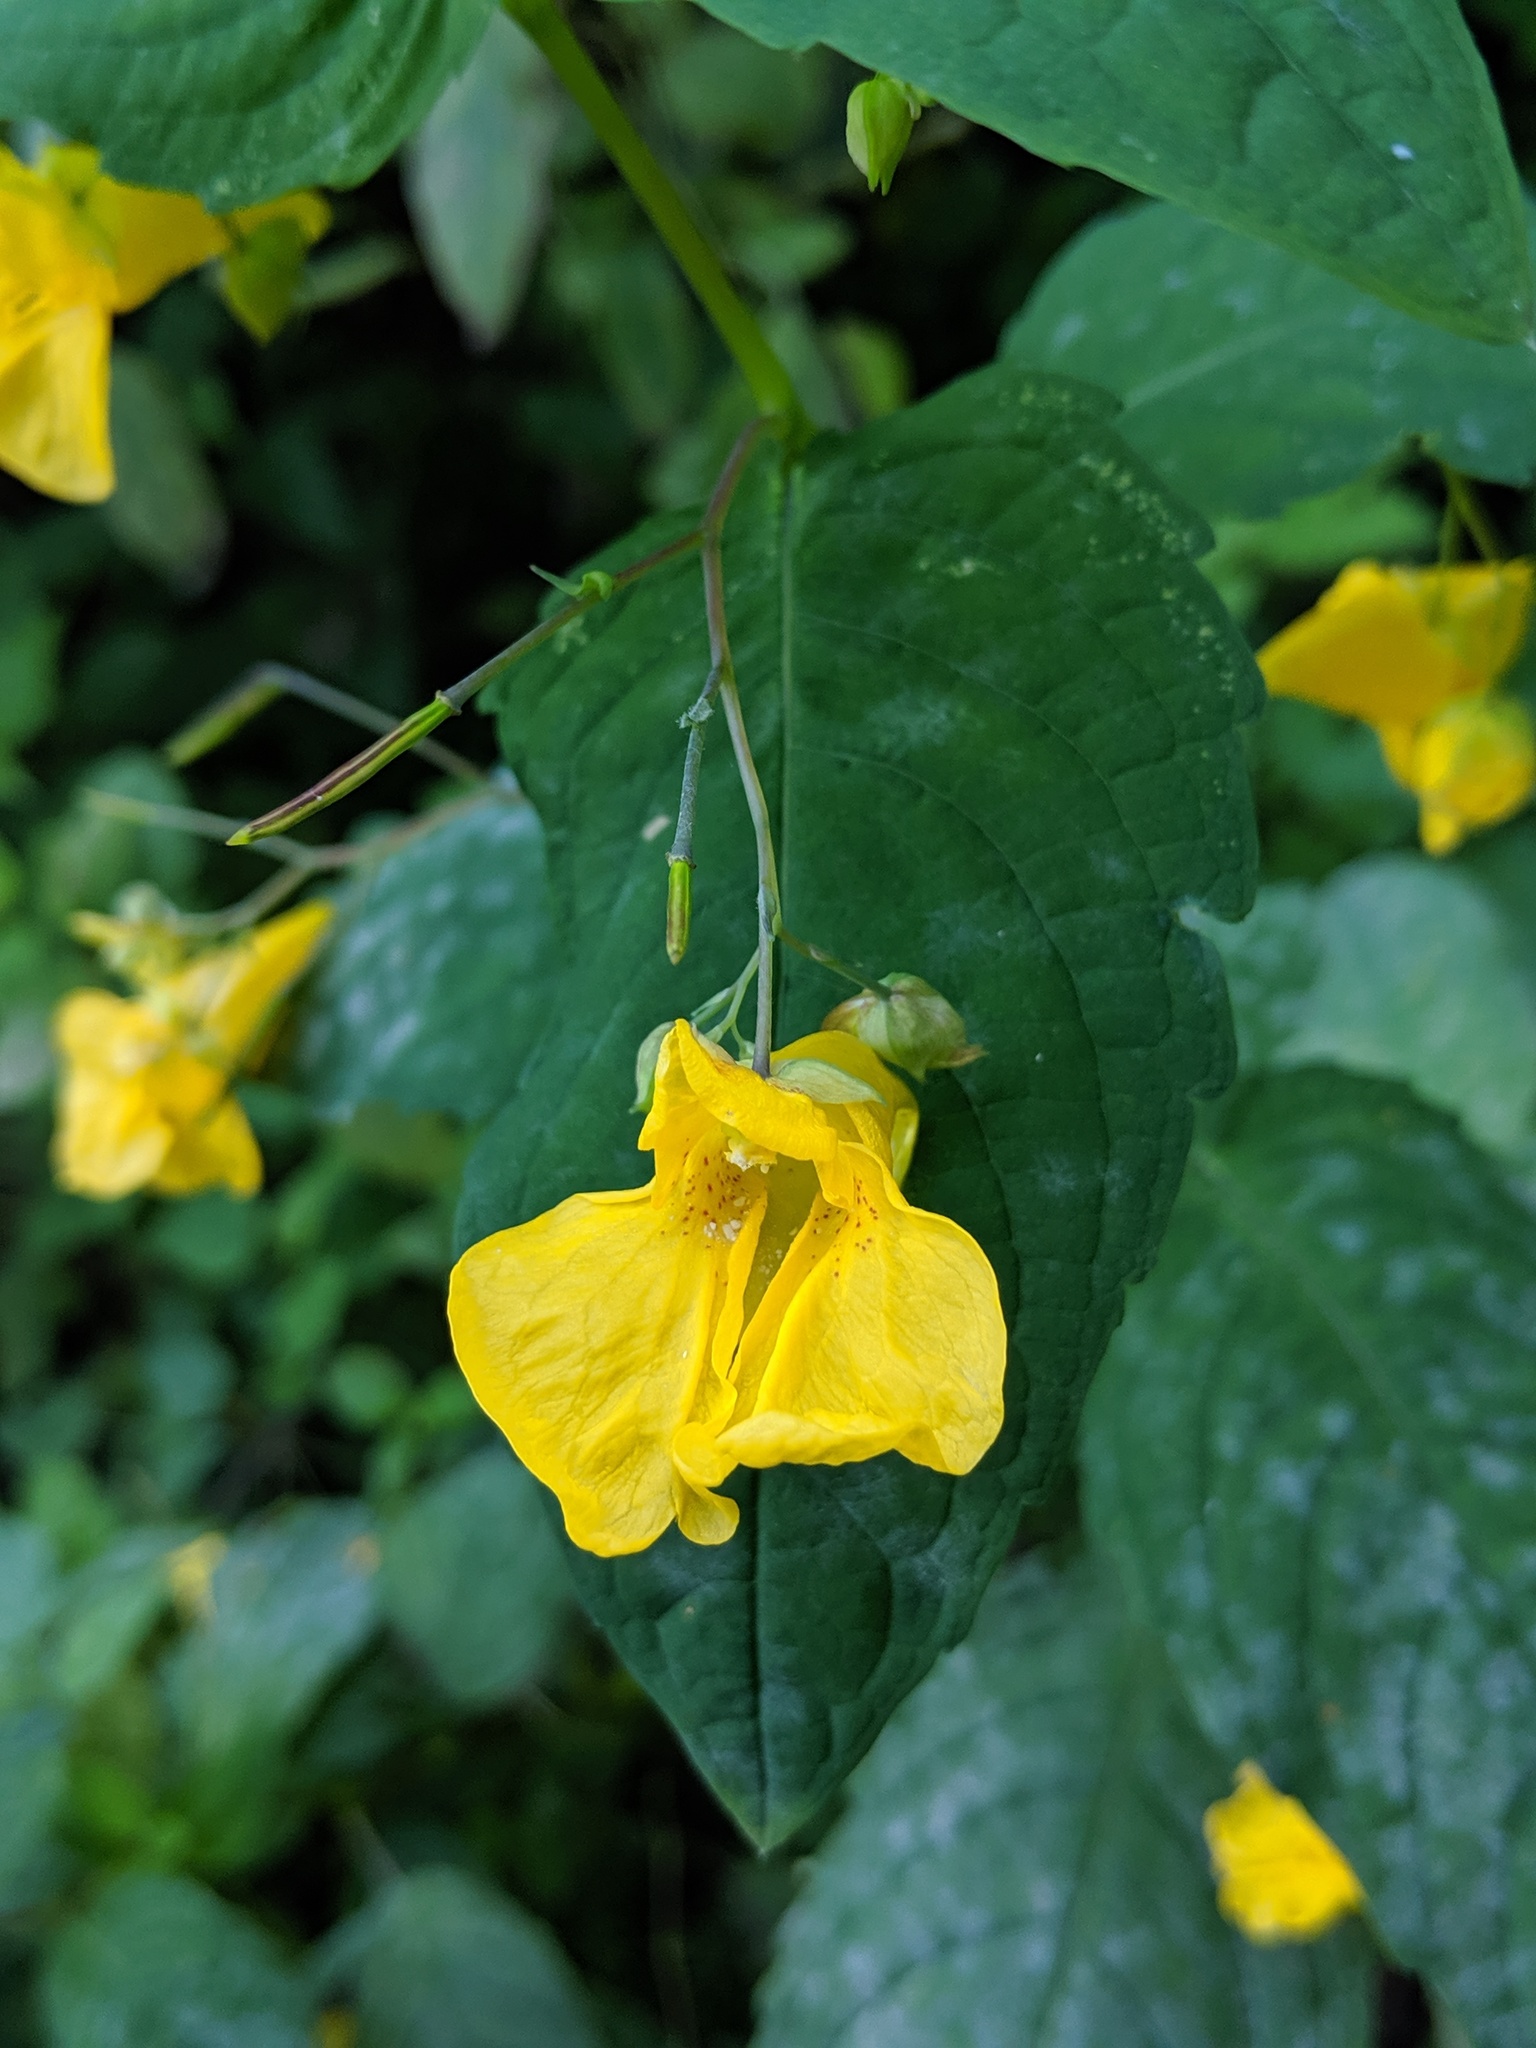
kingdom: Plantae
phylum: Tracheophyta
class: Magnoliopsida
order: Ericales
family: Balsaminaceae
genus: Impatiens
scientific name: Impatiens noli-tangere
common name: Touch-me-not balsam
